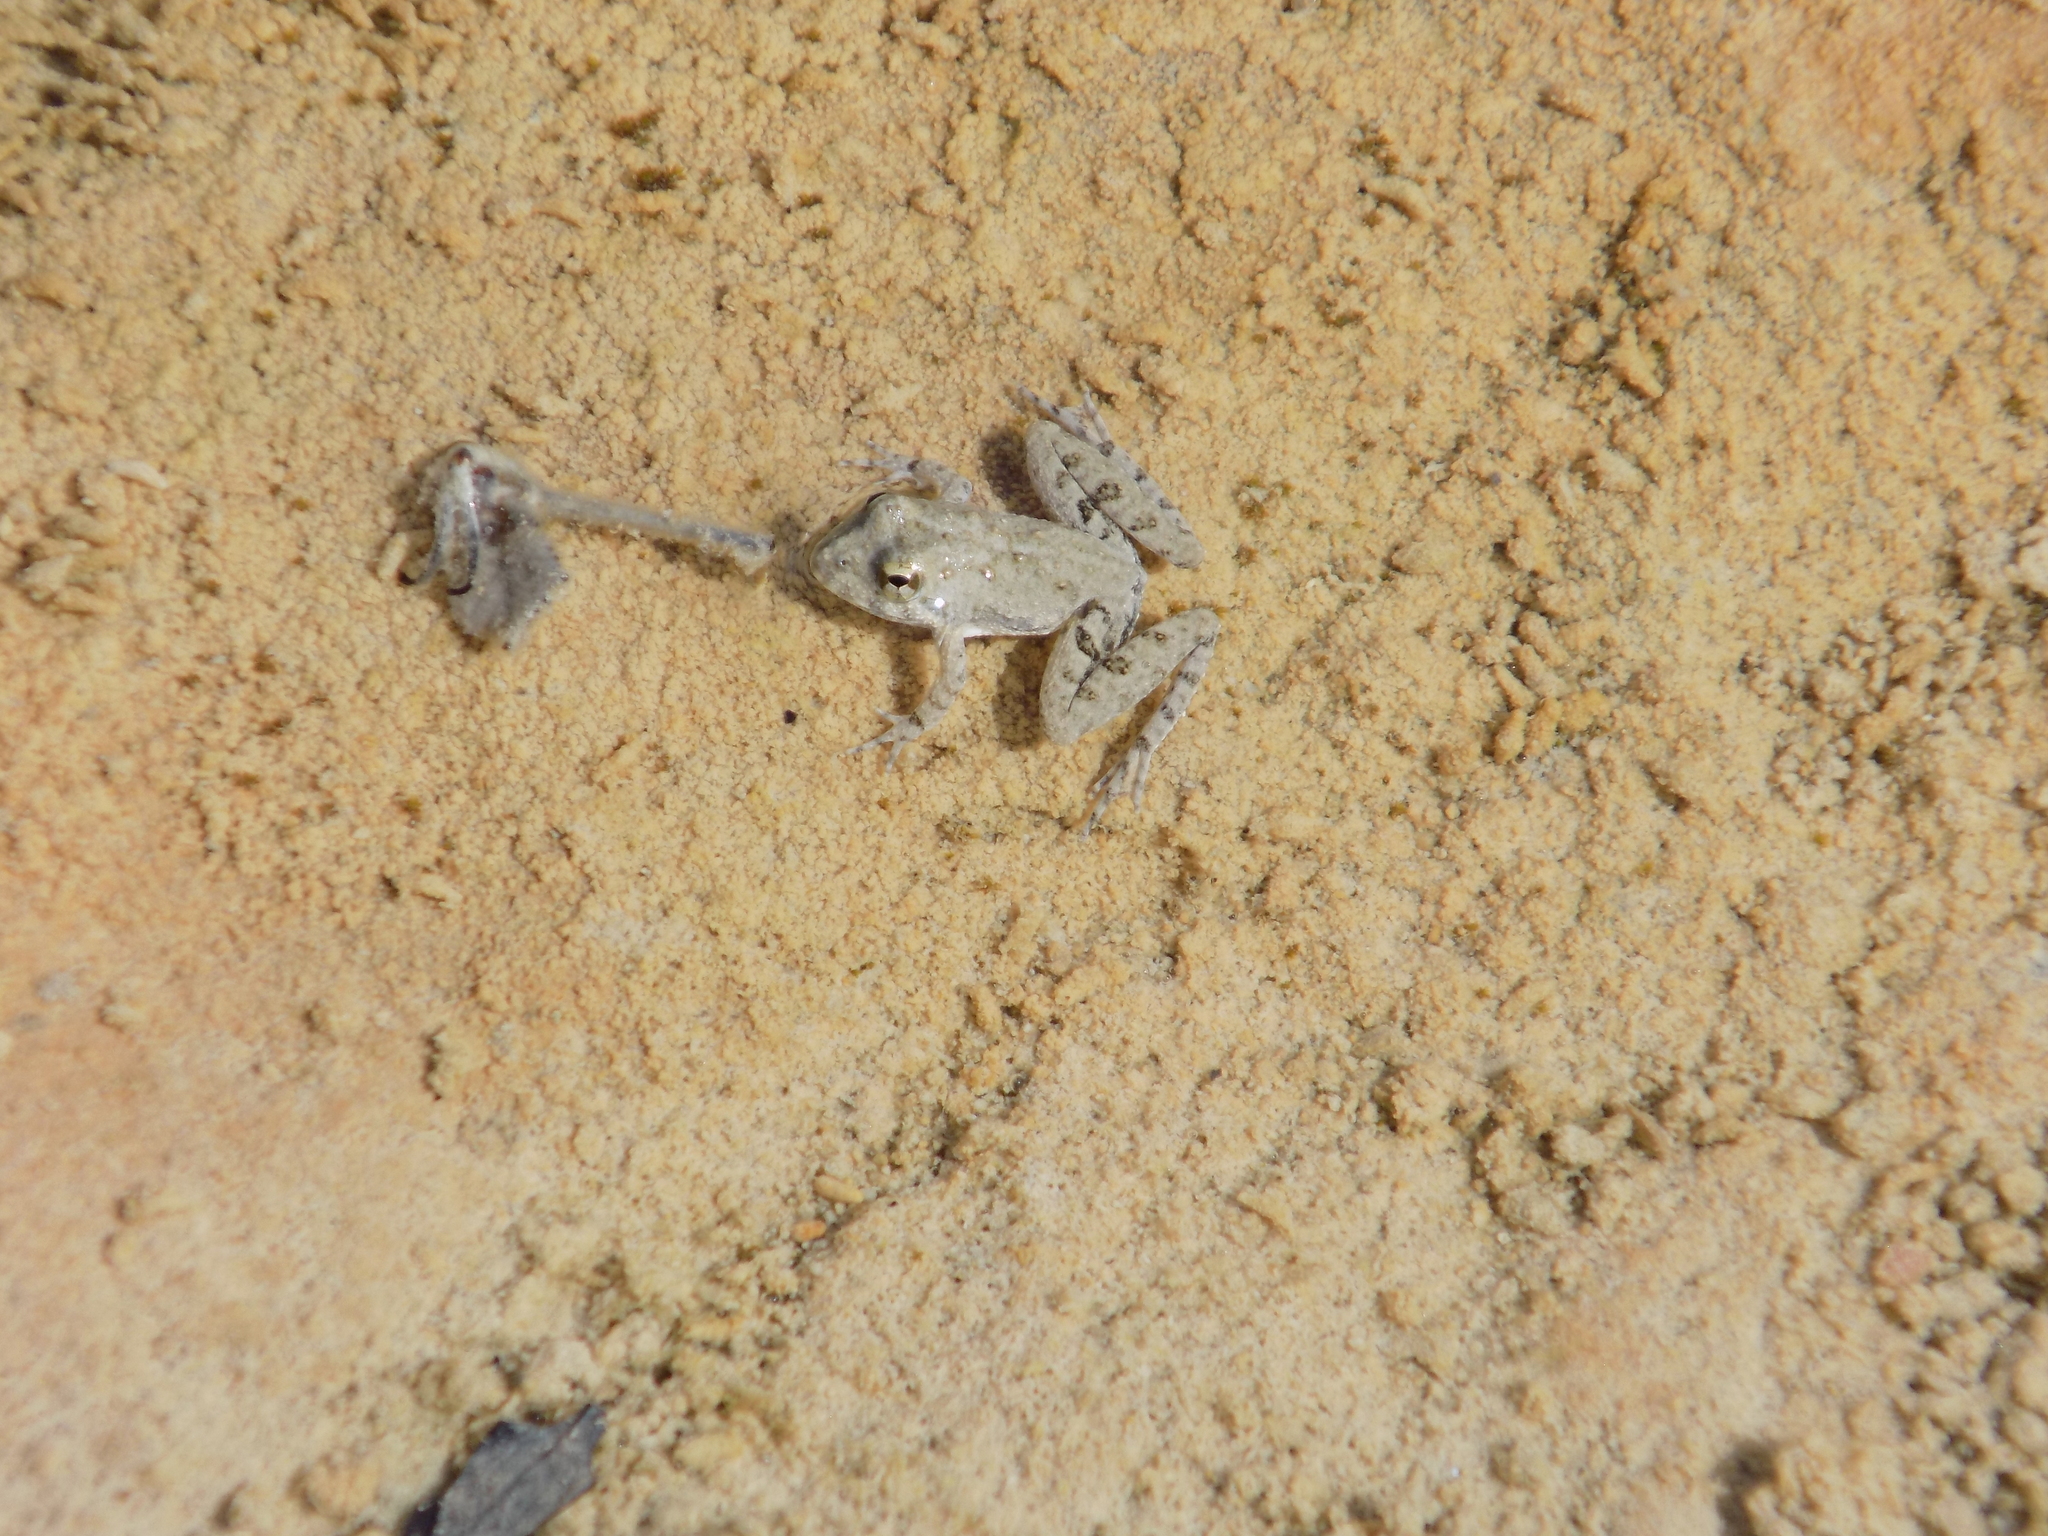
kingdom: Animalia
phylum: Chordata
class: Amphibia
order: Anura
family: Hylidae
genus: Acris
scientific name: Acris blanchardi
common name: Blanchard's cricket frog
